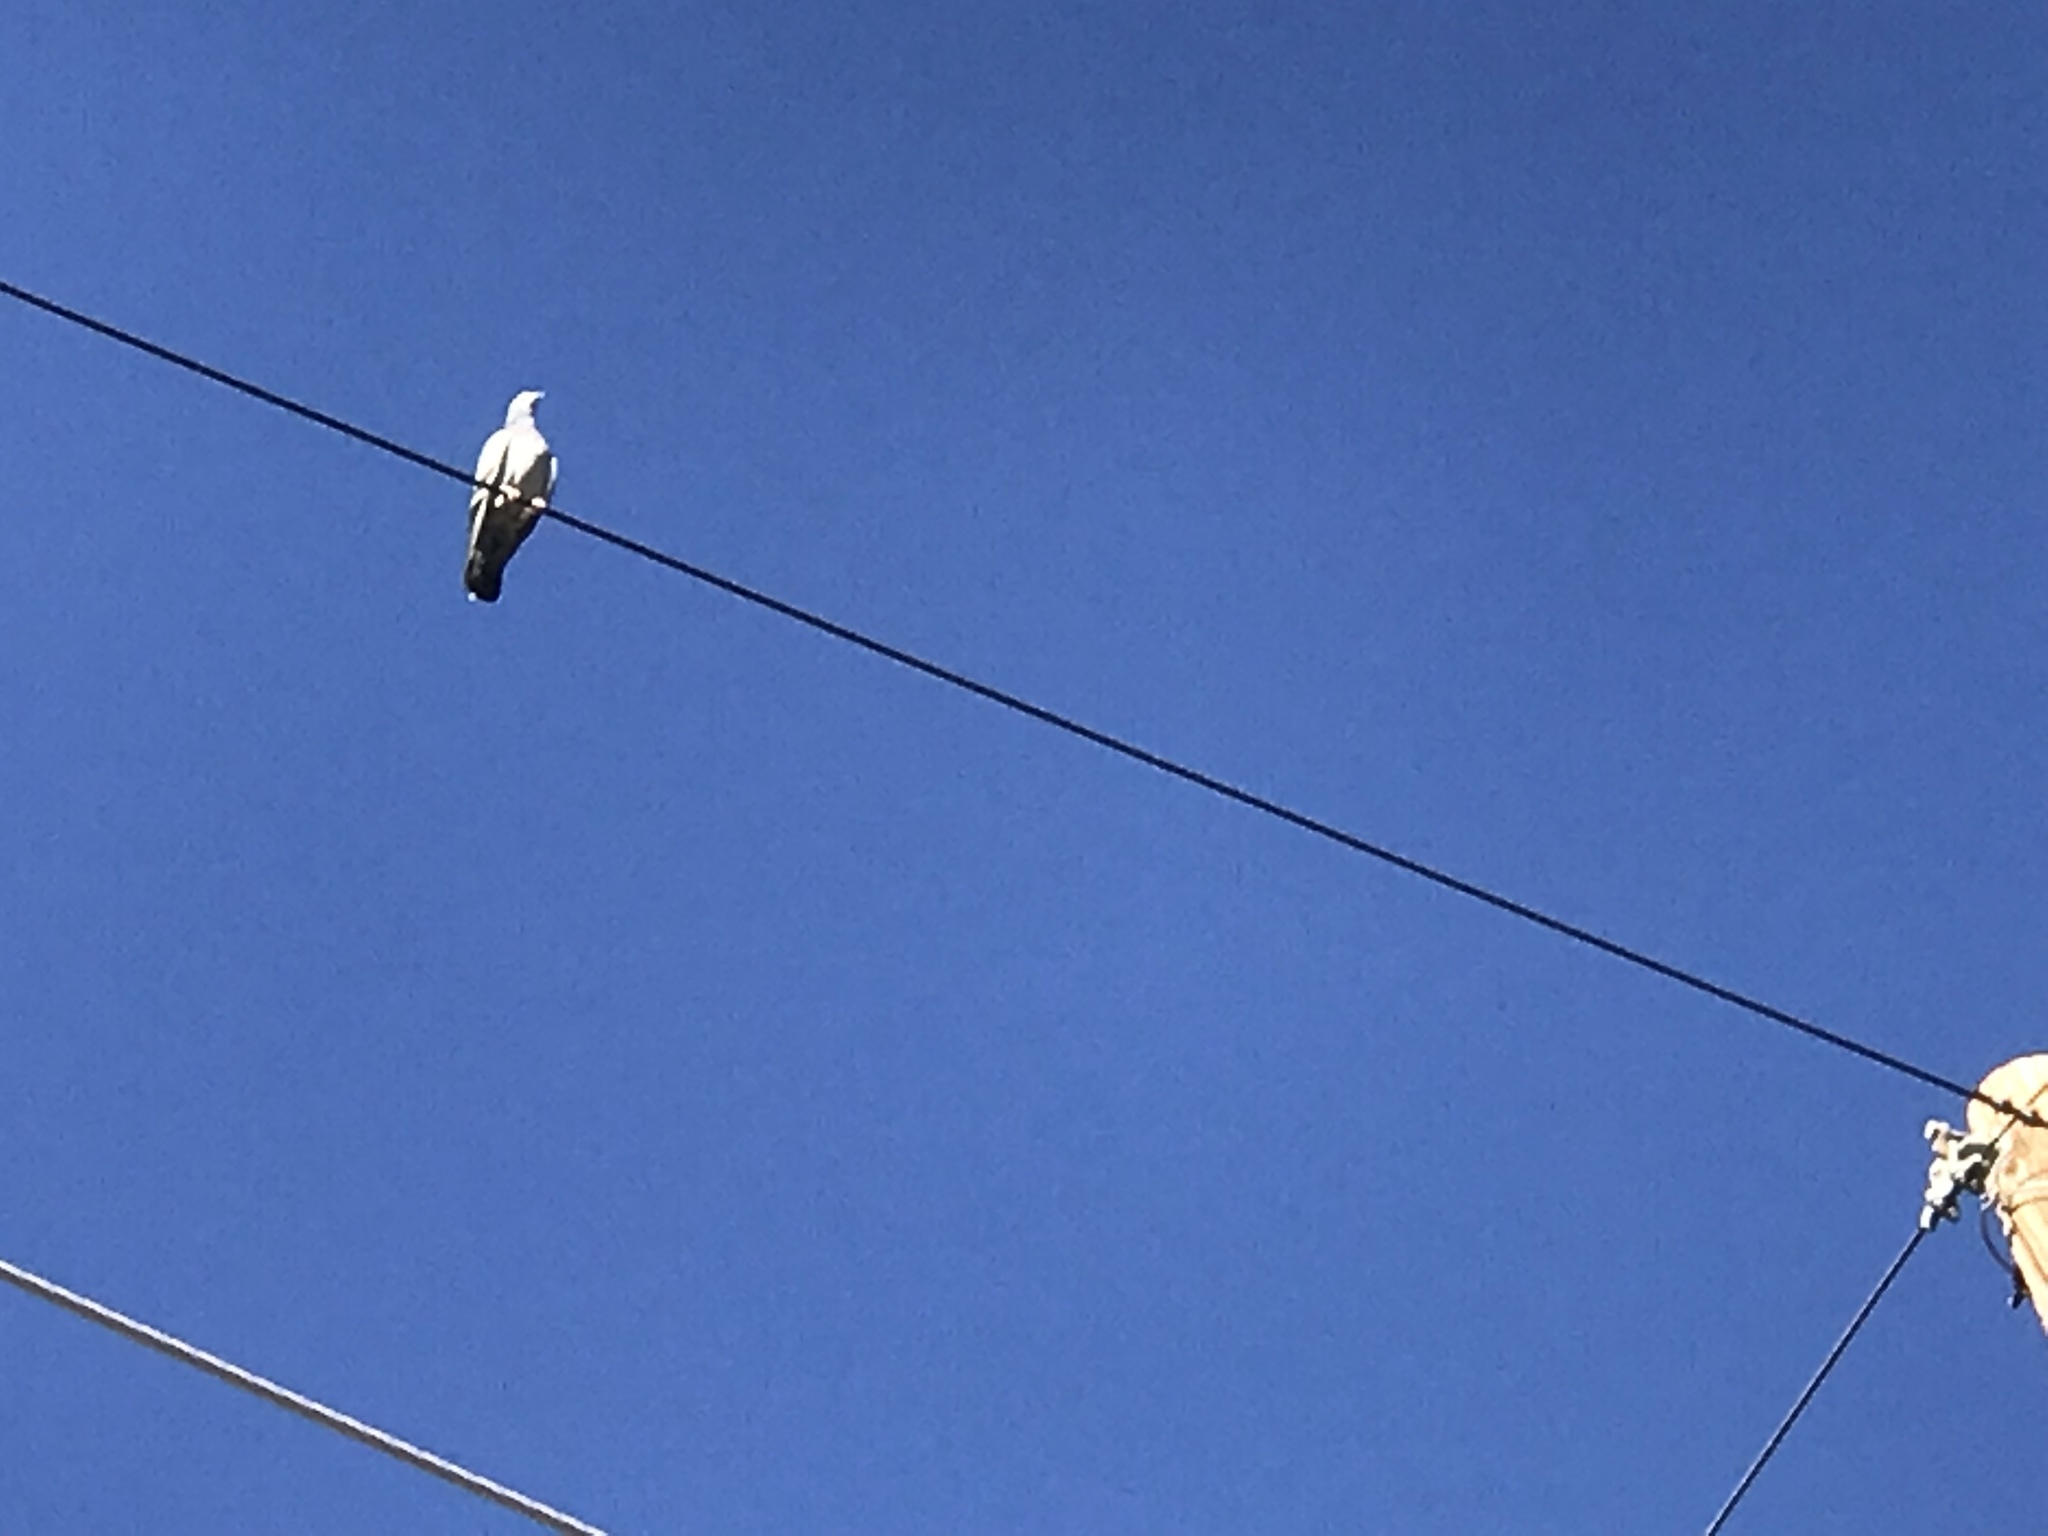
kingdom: Animalia
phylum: Chordata
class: Aves
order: Columbiformes
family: Columbidae
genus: Columba
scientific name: Columba livia
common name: Rock pigeon
